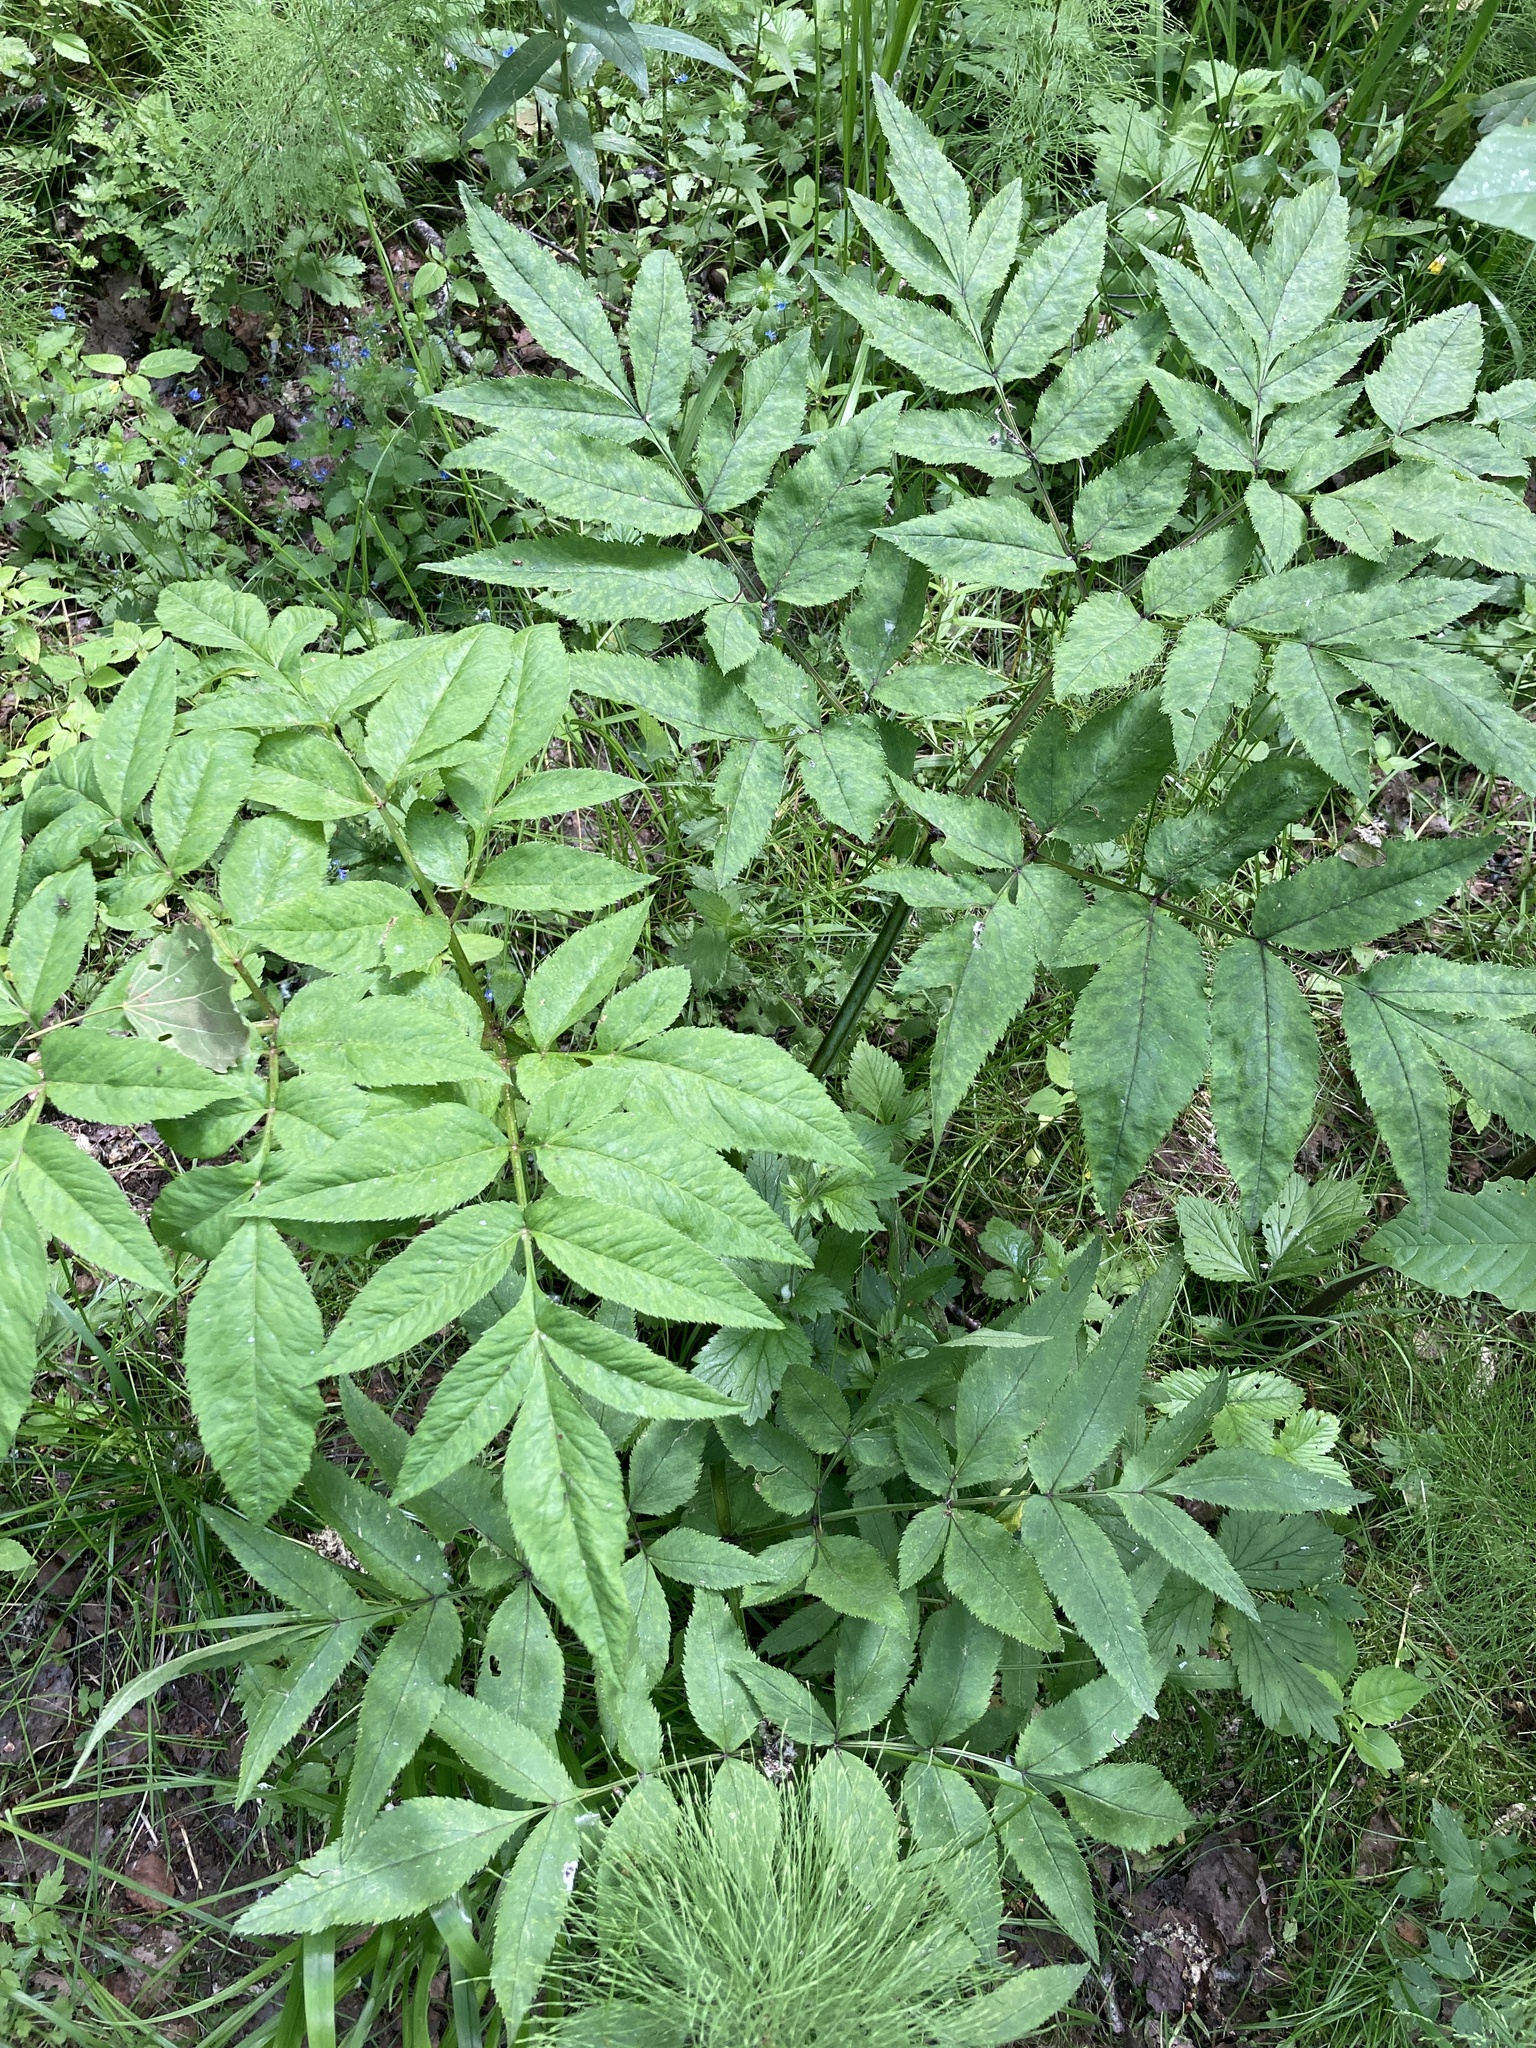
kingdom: Plantae
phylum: Tracheophyta
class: Magnoliopsida
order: Apiales
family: Apiaceae
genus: Angelica
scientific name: Angelica sylvestris
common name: Wild angelica
